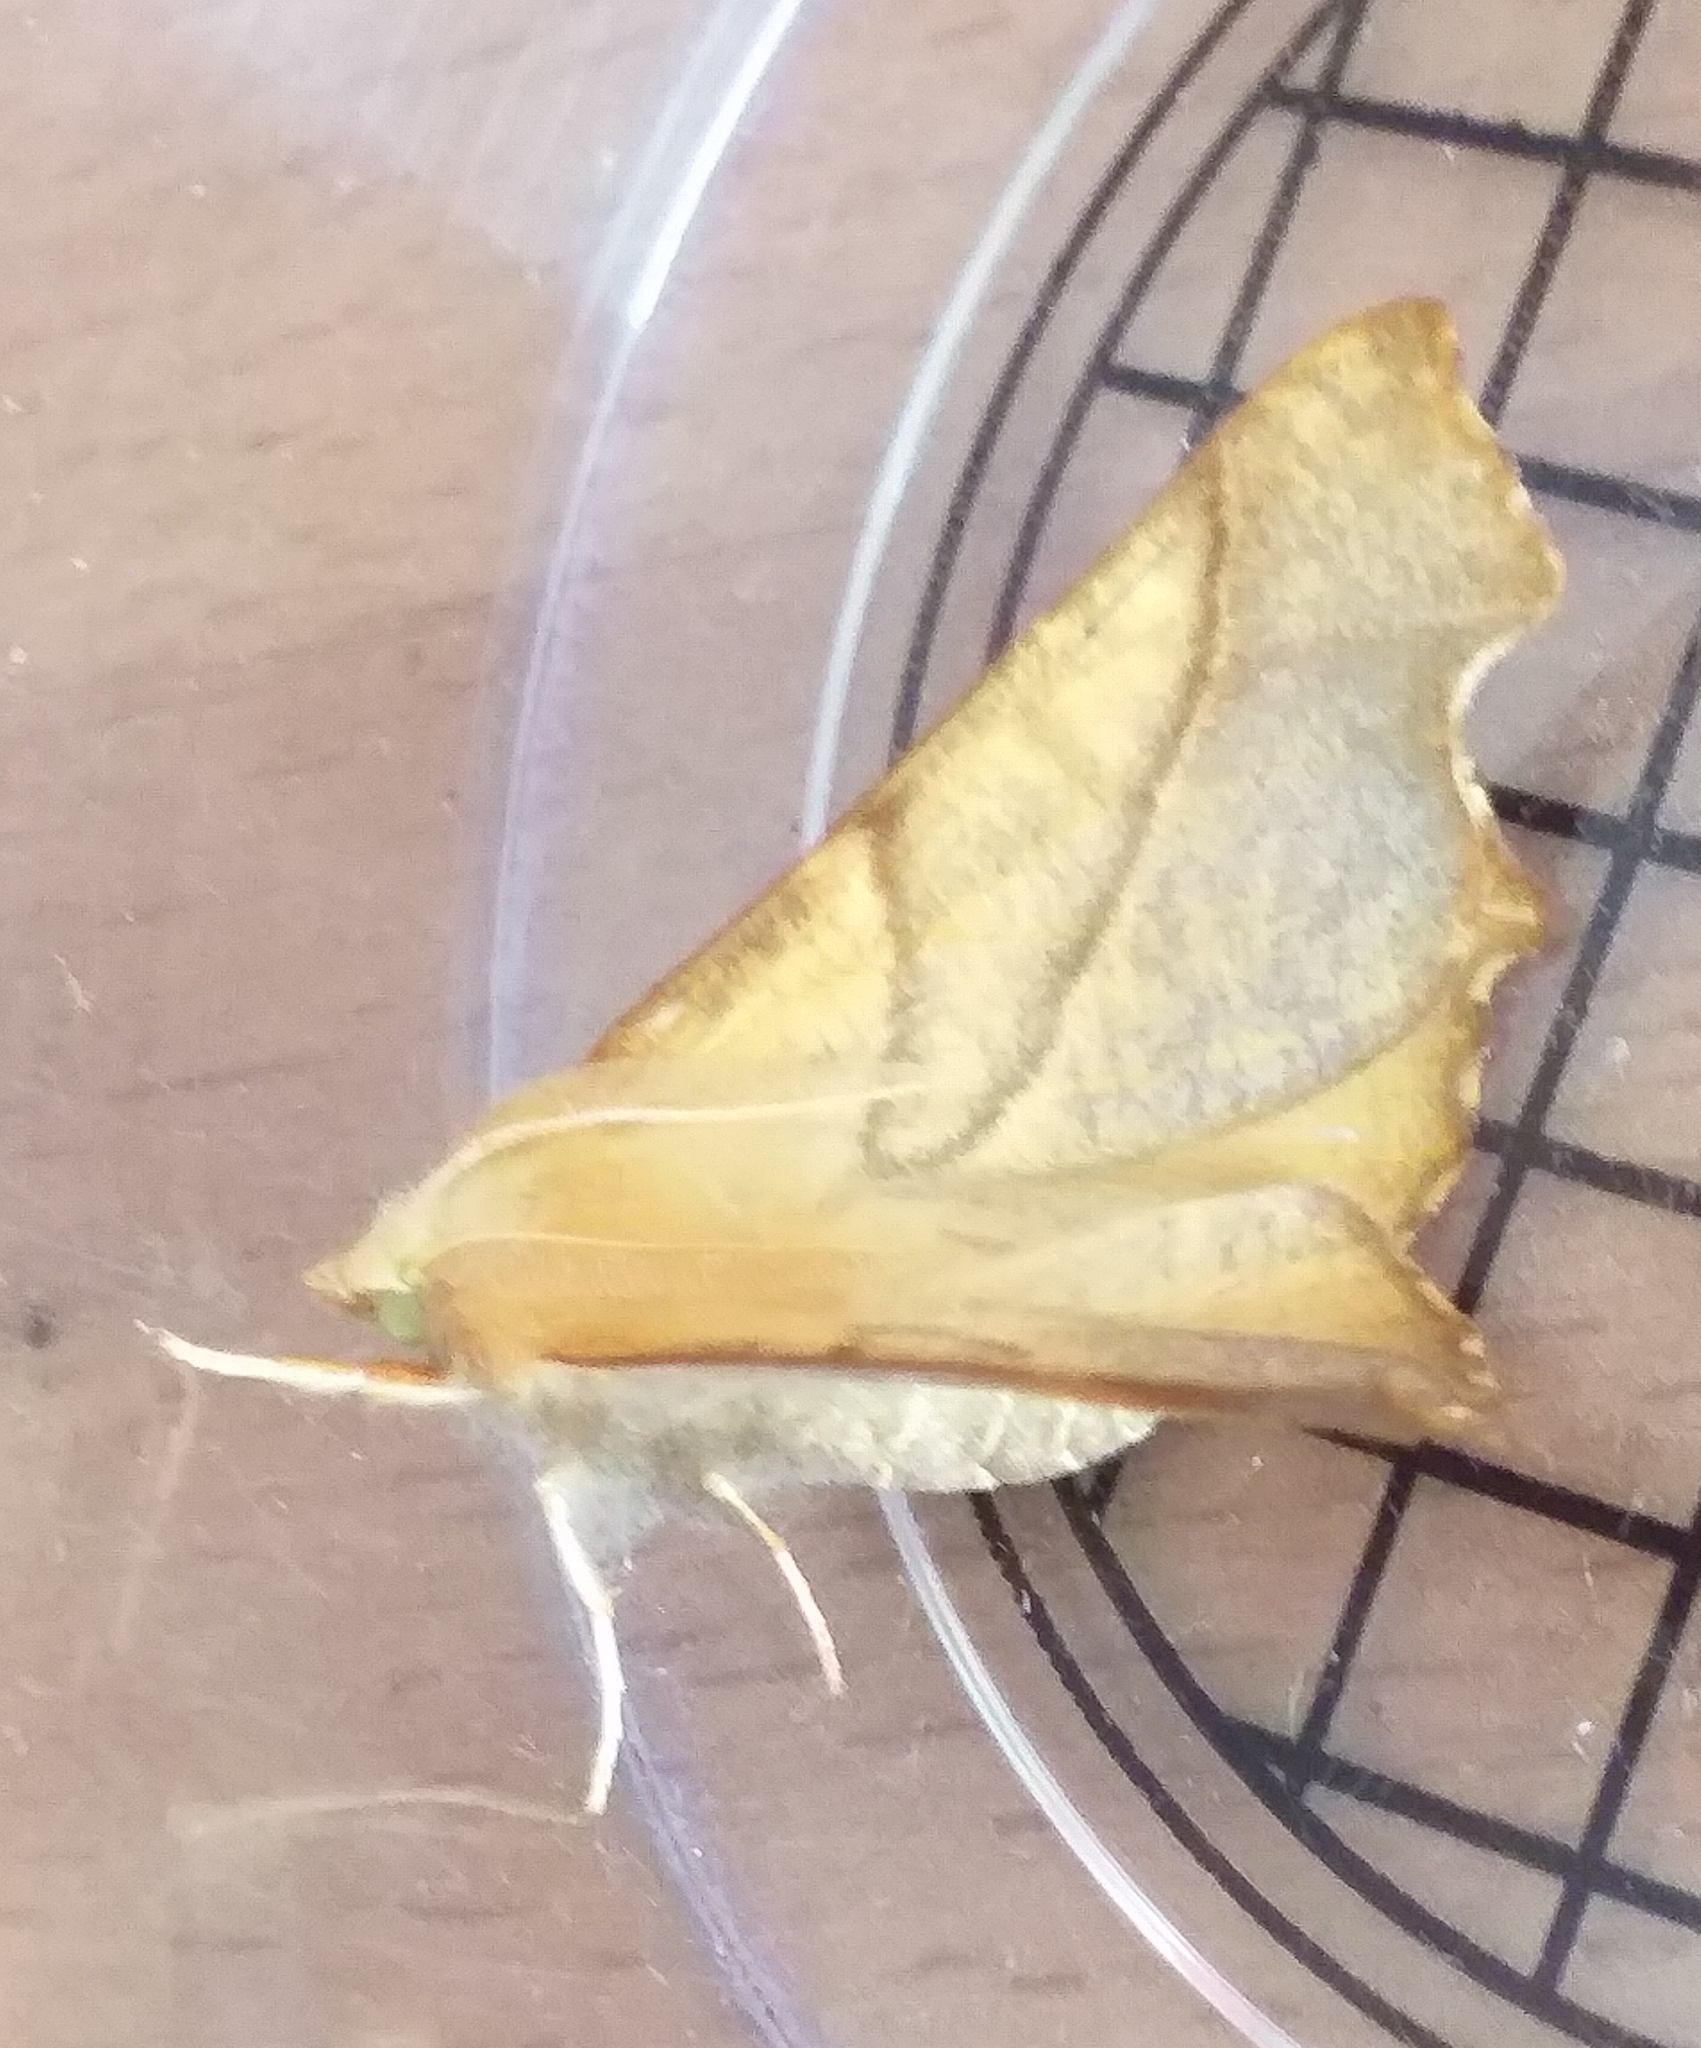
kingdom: Animalia
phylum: Arthropoda
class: Insecta
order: Lepidoptera
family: Geometridae
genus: Ennomos
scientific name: Ennomos fuscantaria
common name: Dusky thorn
